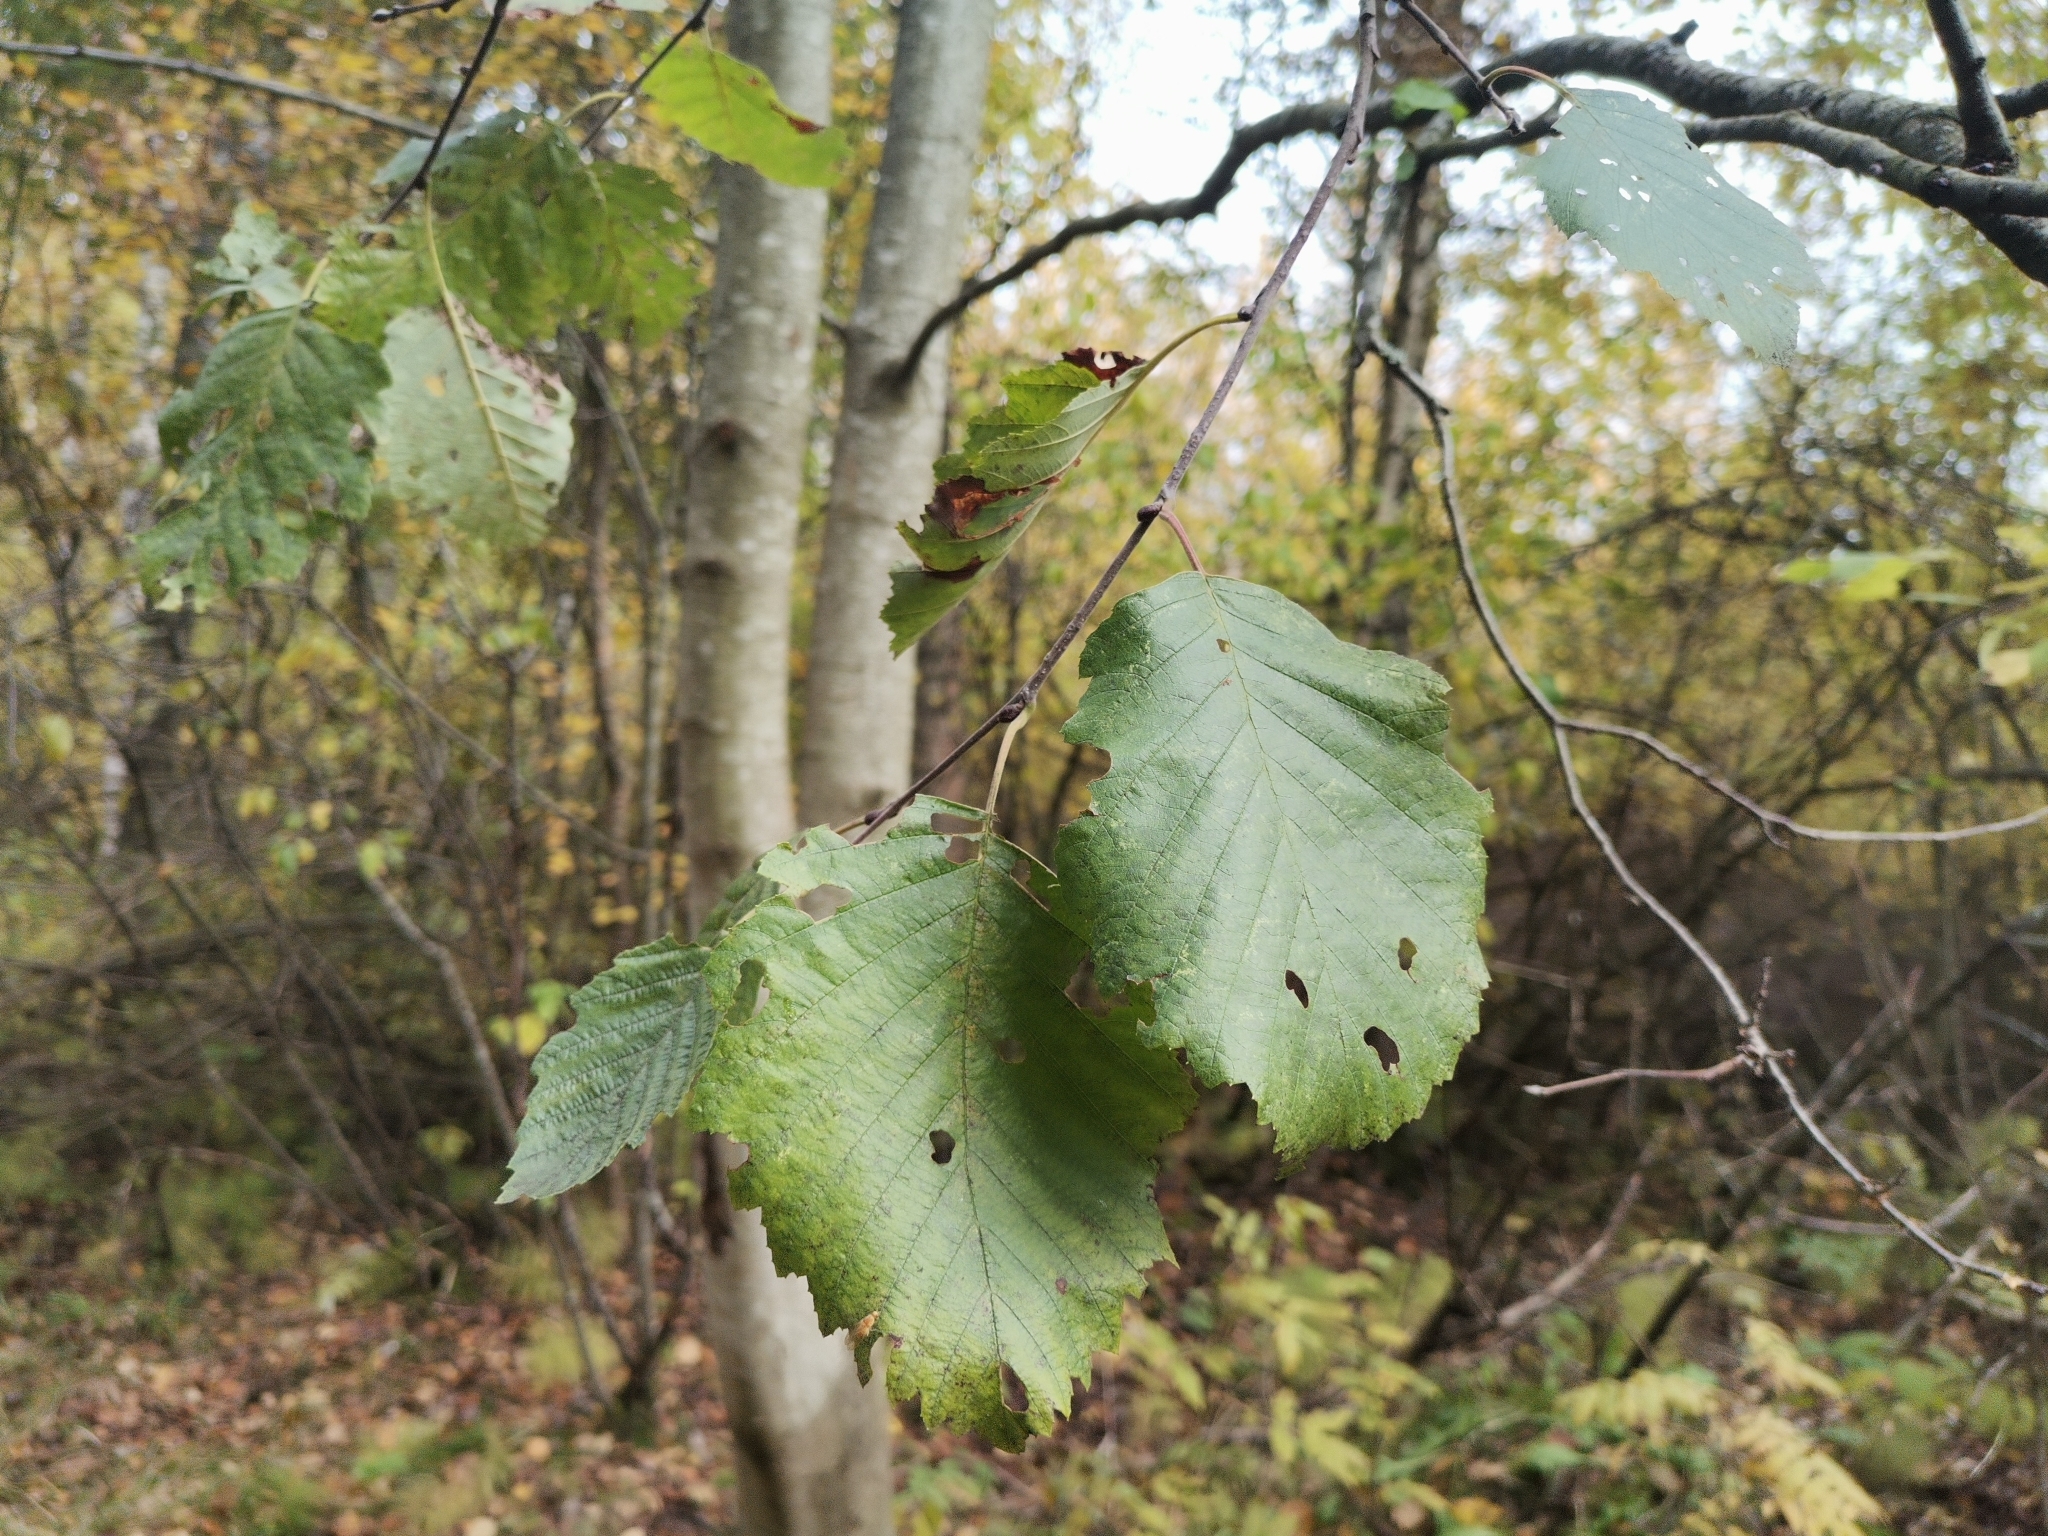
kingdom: Plantae
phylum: Tracheophyta
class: Magnoliopsida
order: Fagales
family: Betulaceae
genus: Alnus
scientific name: Alnus incana
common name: Grey alder
